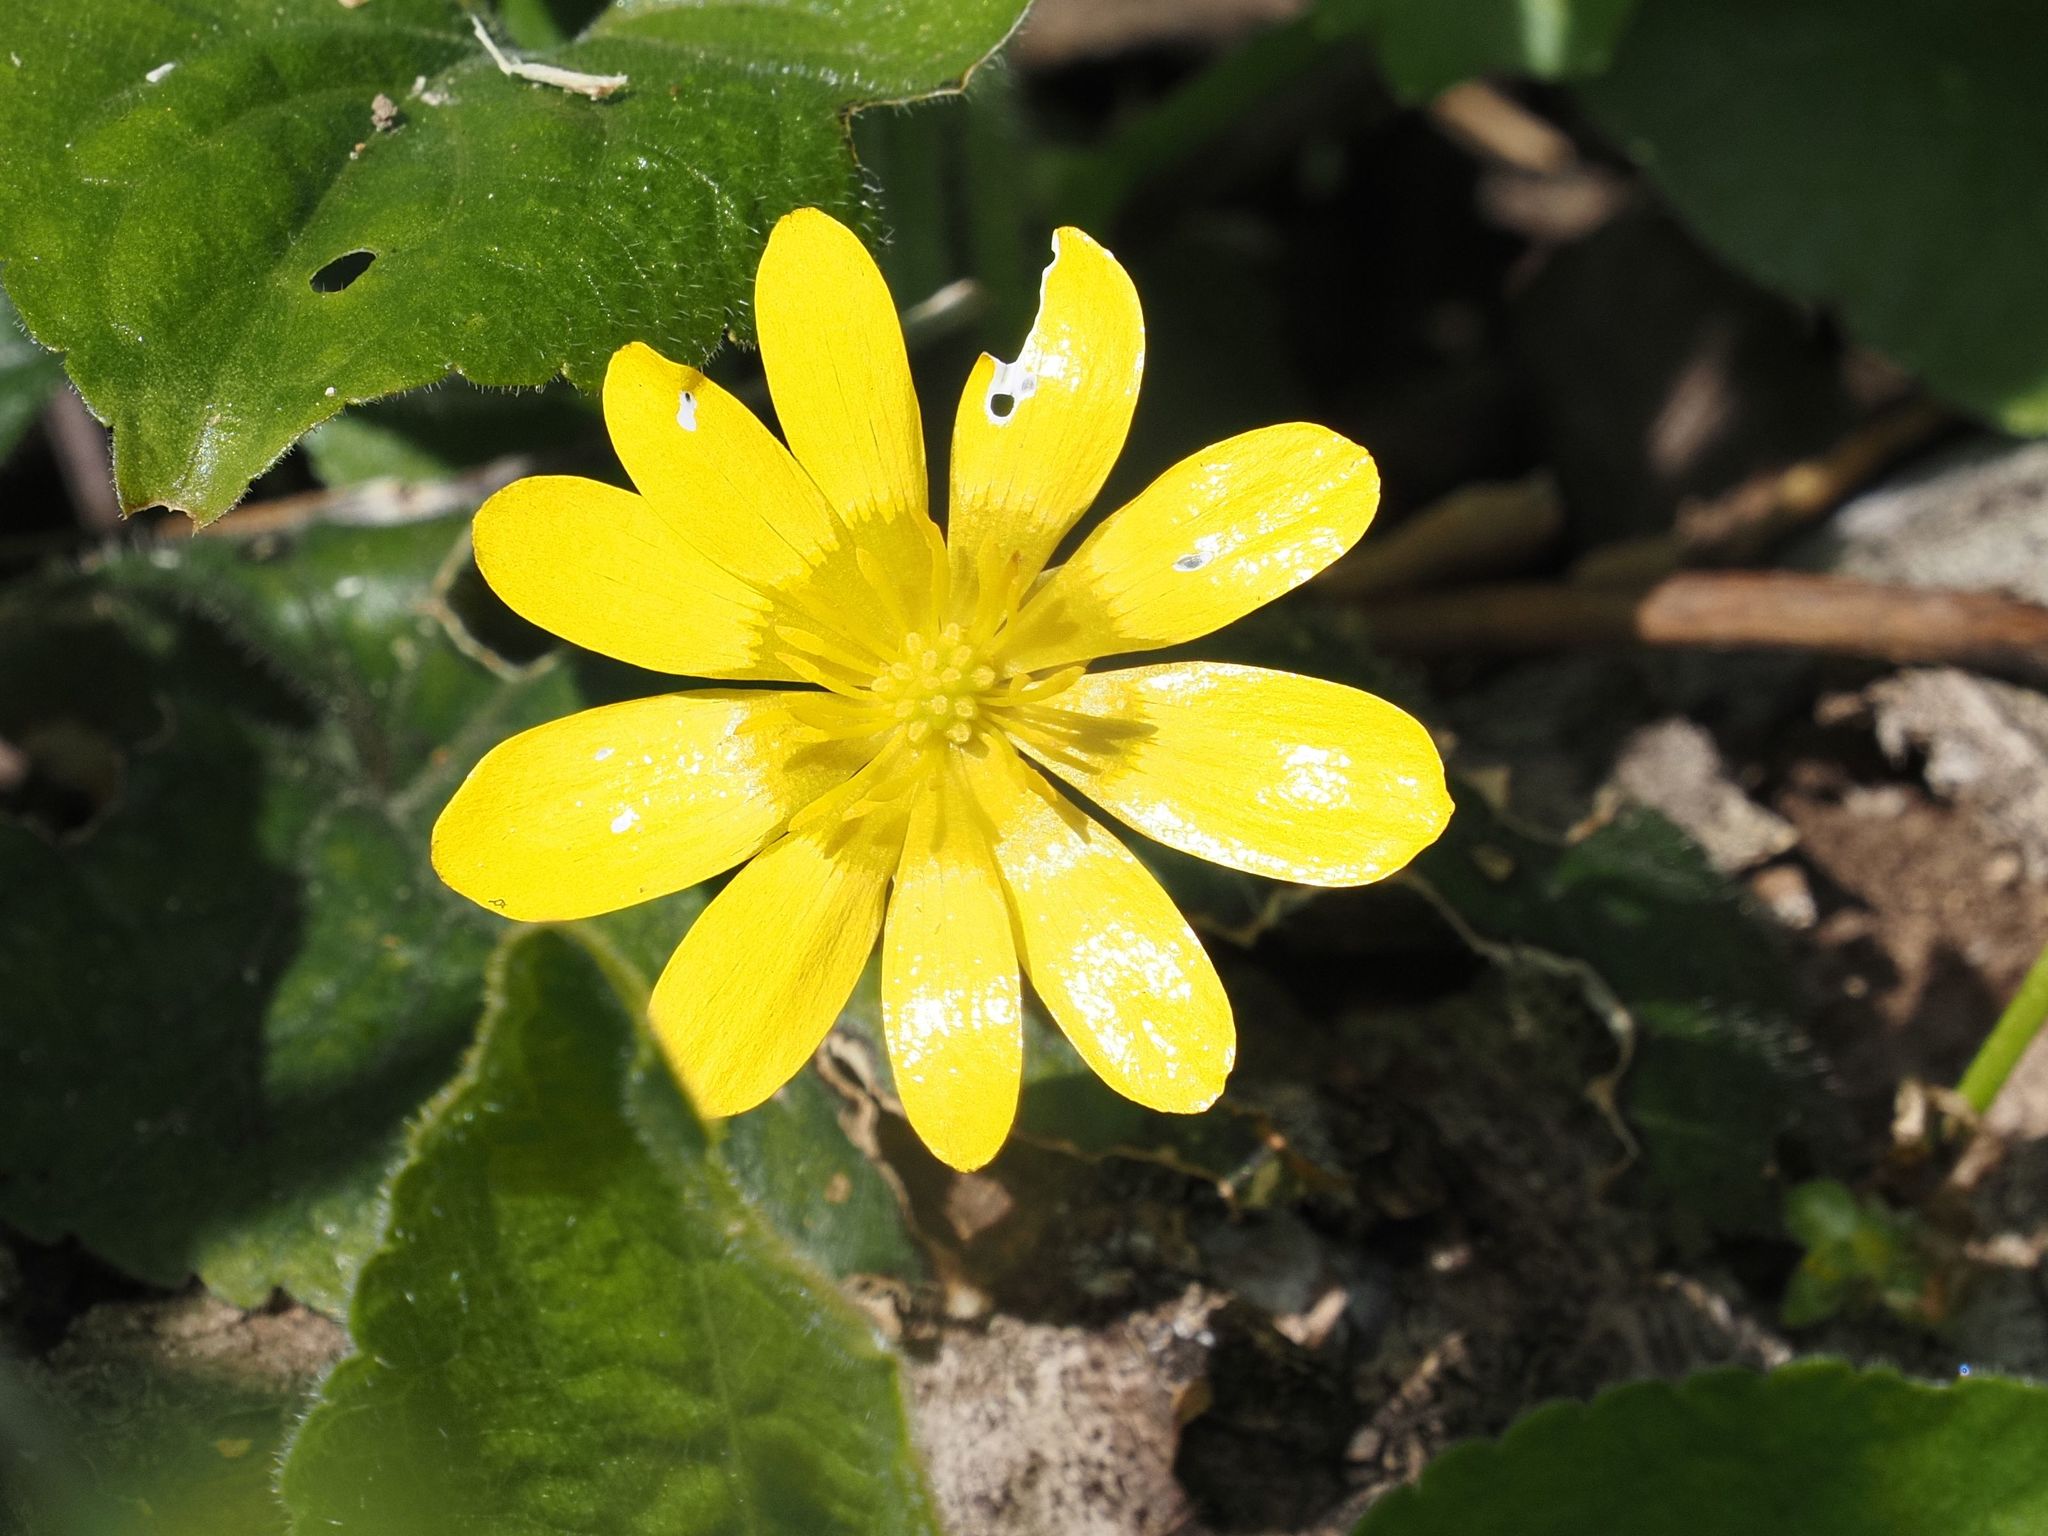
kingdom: Plantae
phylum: Tracheophyta
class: Magnoliopsida
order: Ranunculales
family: Ranunculaceae
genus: Ficaria
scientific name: Ficaria verna
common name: Lesser celandine
